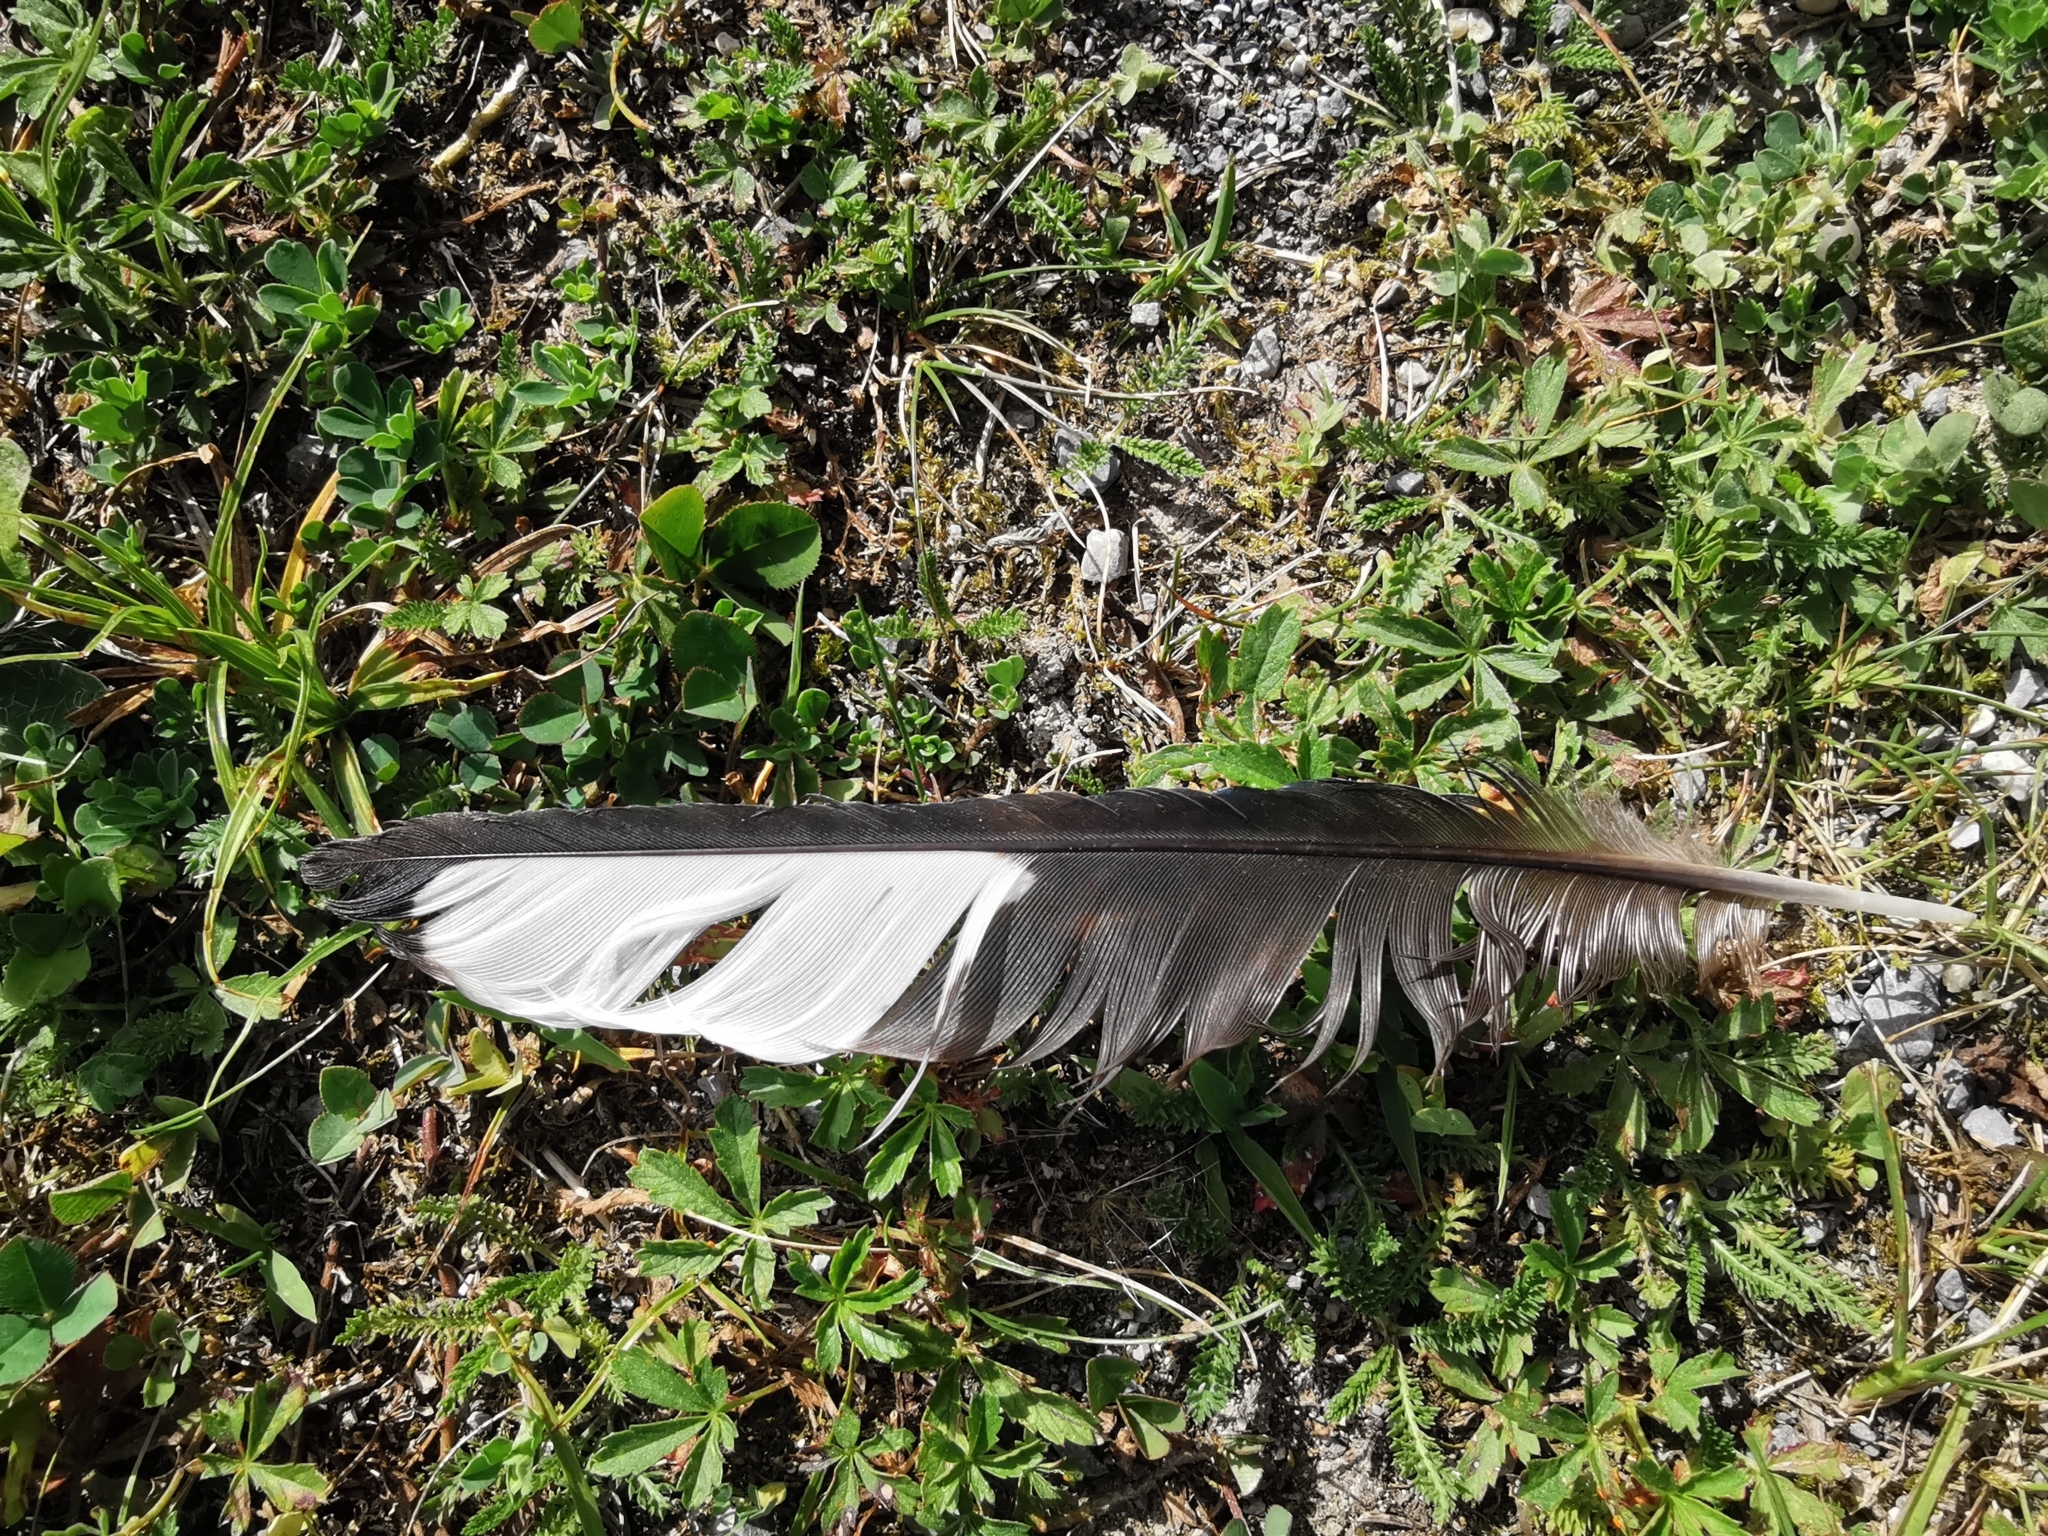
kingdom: Animalia
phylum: Chordata
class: Aves
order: Passeriformes
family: Corvidae
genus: Pica
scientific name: Pica pica
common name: Eurasian magpie
